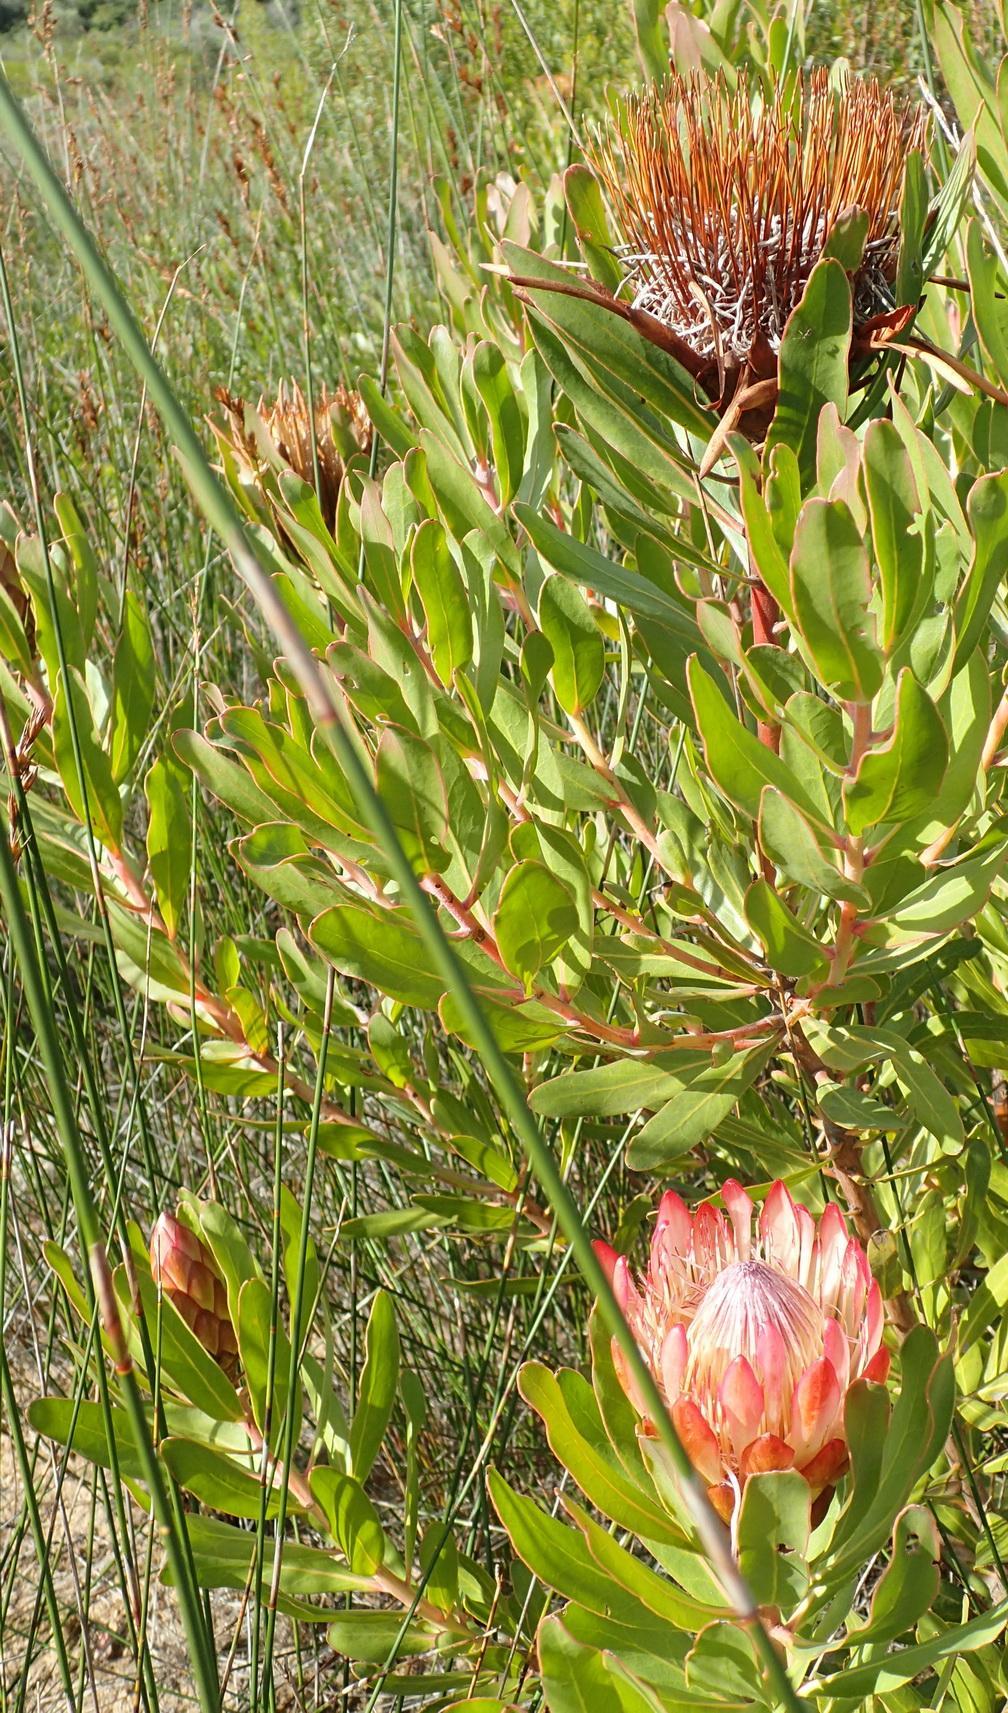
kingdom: Plantae
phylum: Tracheophyta
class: Magnoliopsida
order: Proteales
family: Proteaceae
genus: Protea
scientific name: Protea susannae
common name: Foetid-leaf sugarbush
